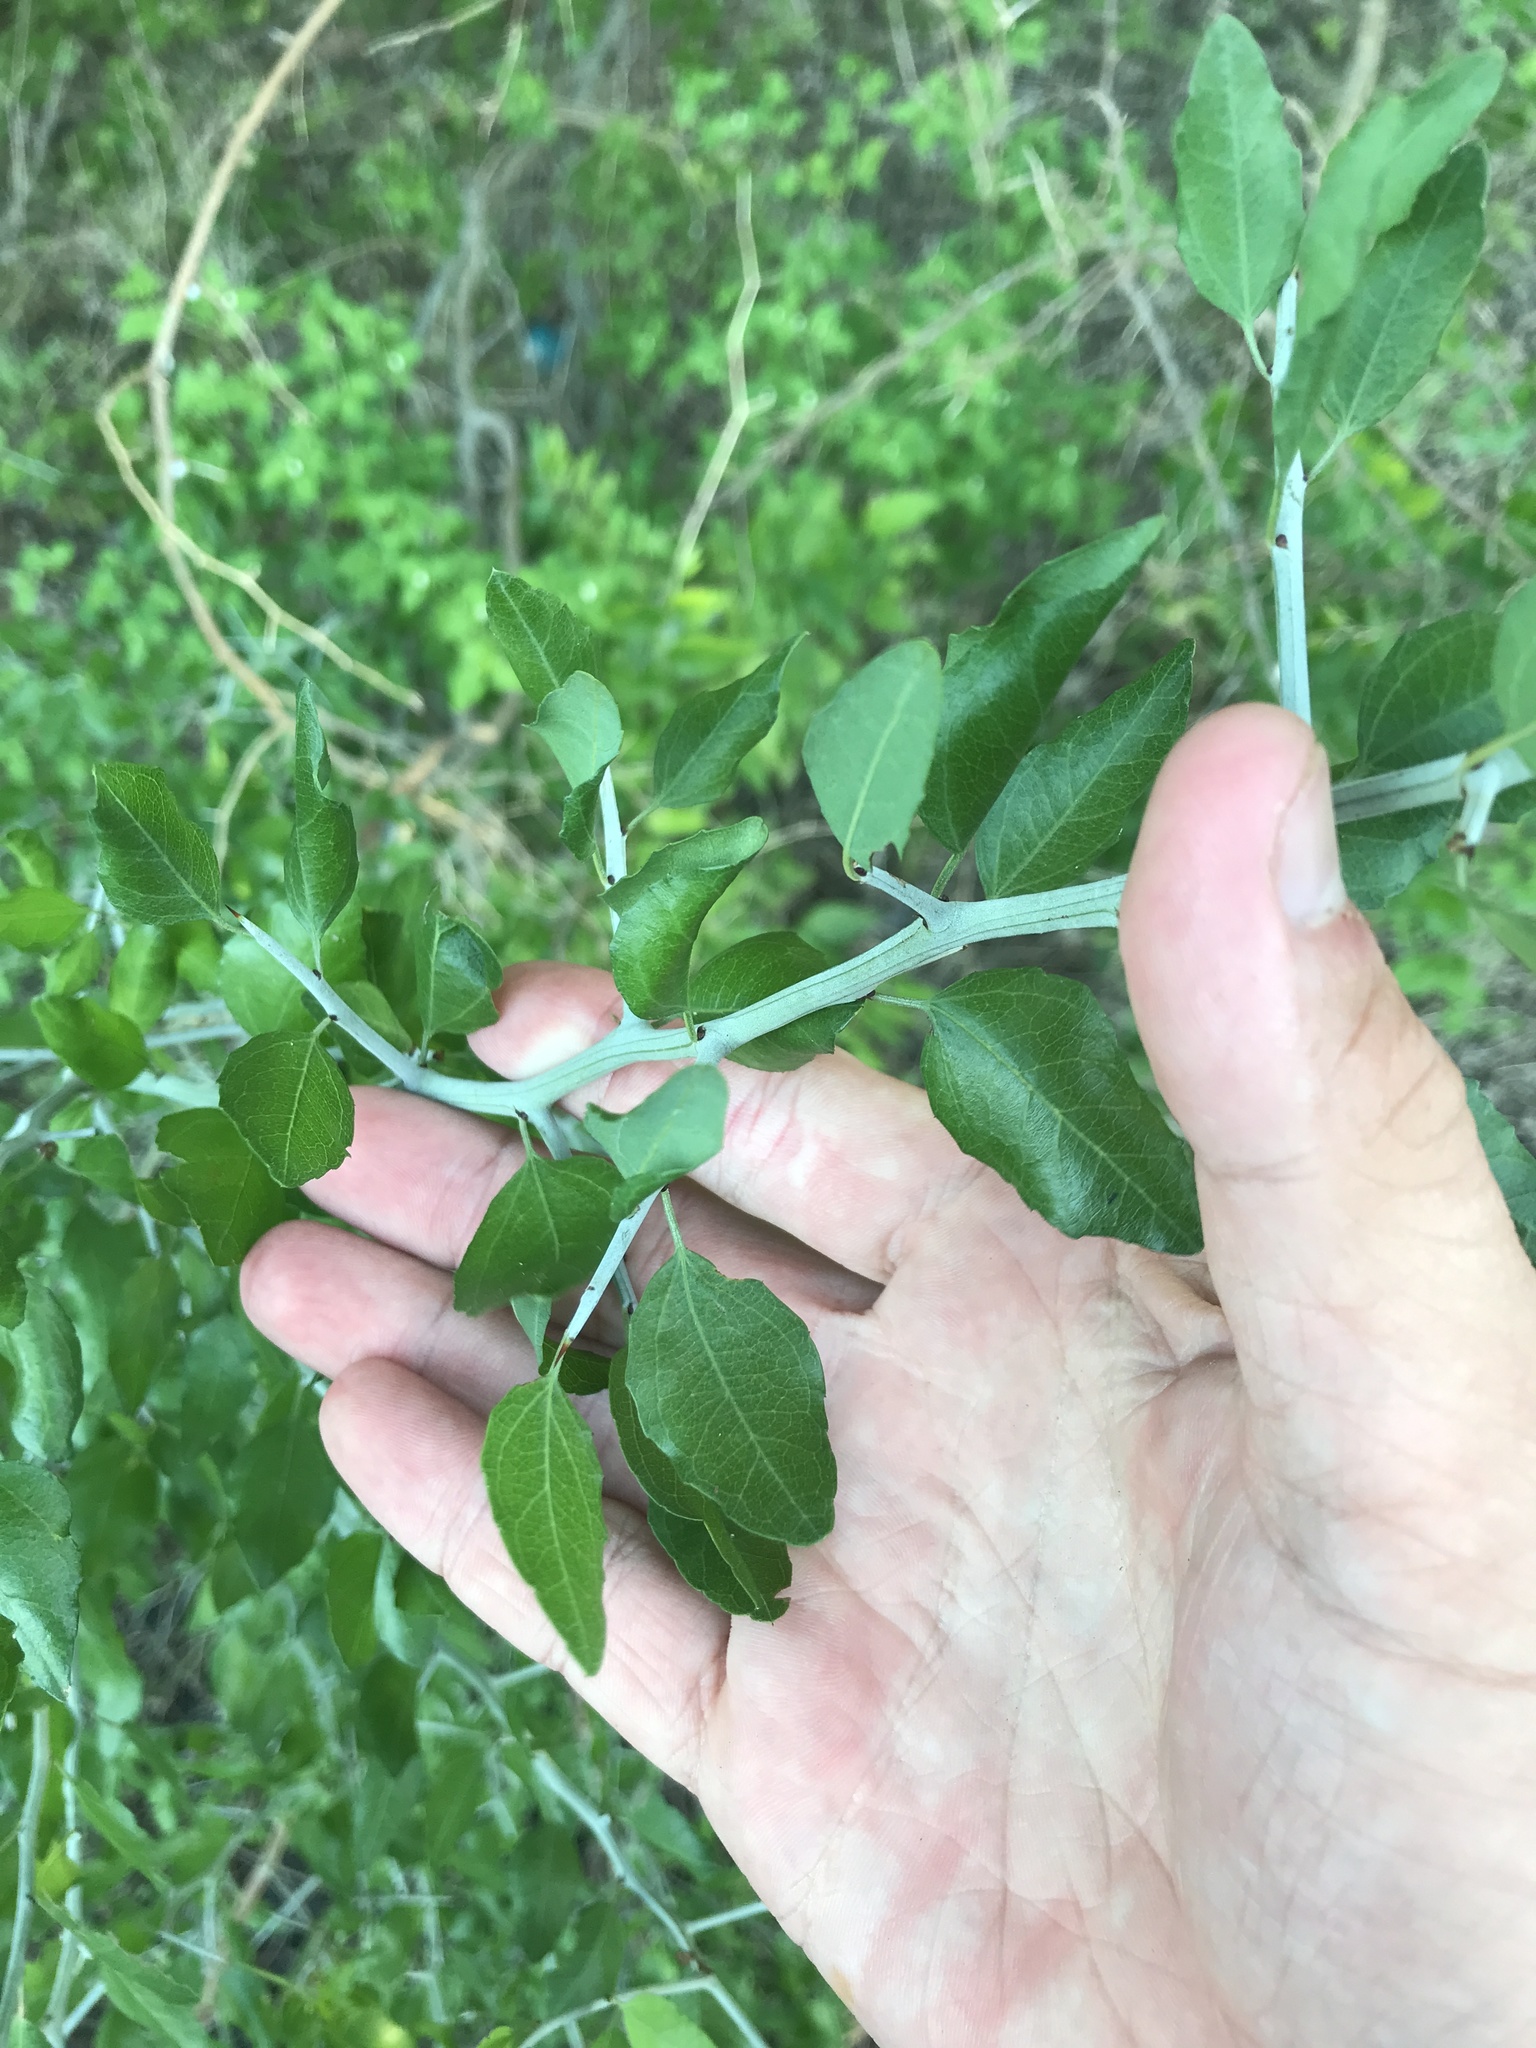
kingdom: Plantae
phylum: Tracheophyta
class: Magnoliopsida
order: Rosales
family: Rhamnaceae
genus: Sarcomphalus
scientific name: Sarcomphalus obtusifolius
